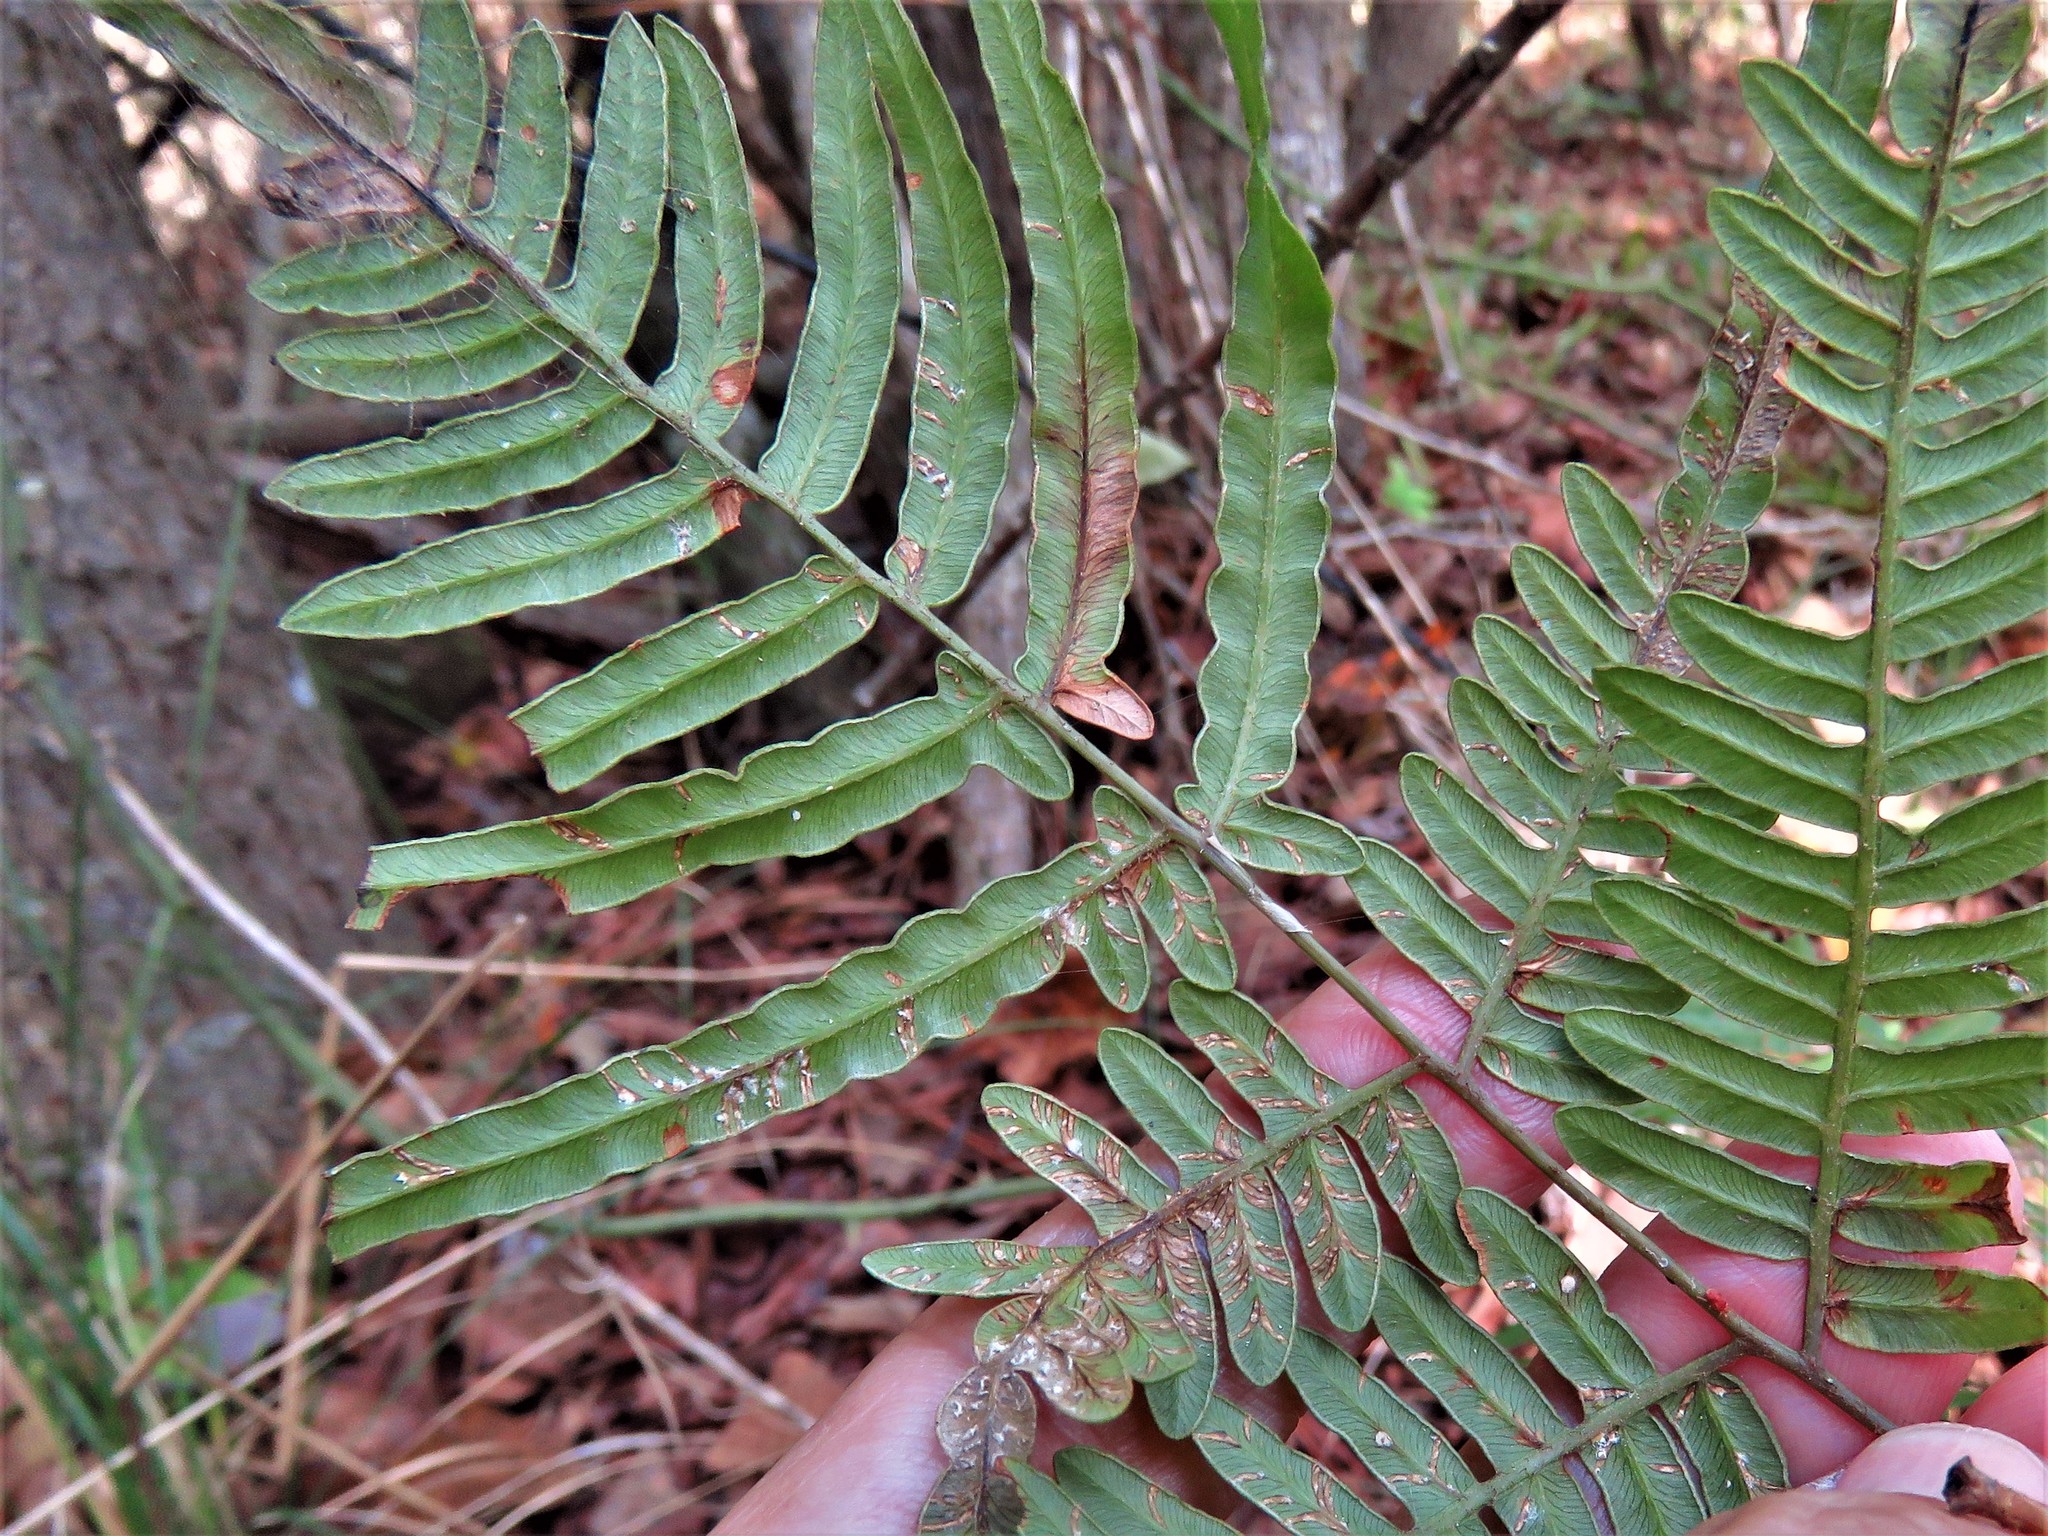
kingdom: Plantae
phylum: Tracheophyta
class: Polypodiopsida
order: Polypodiales
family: Dennstaedtiaceae
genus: Pteridium
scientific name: Pteridium aquilinum
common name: Bracken
